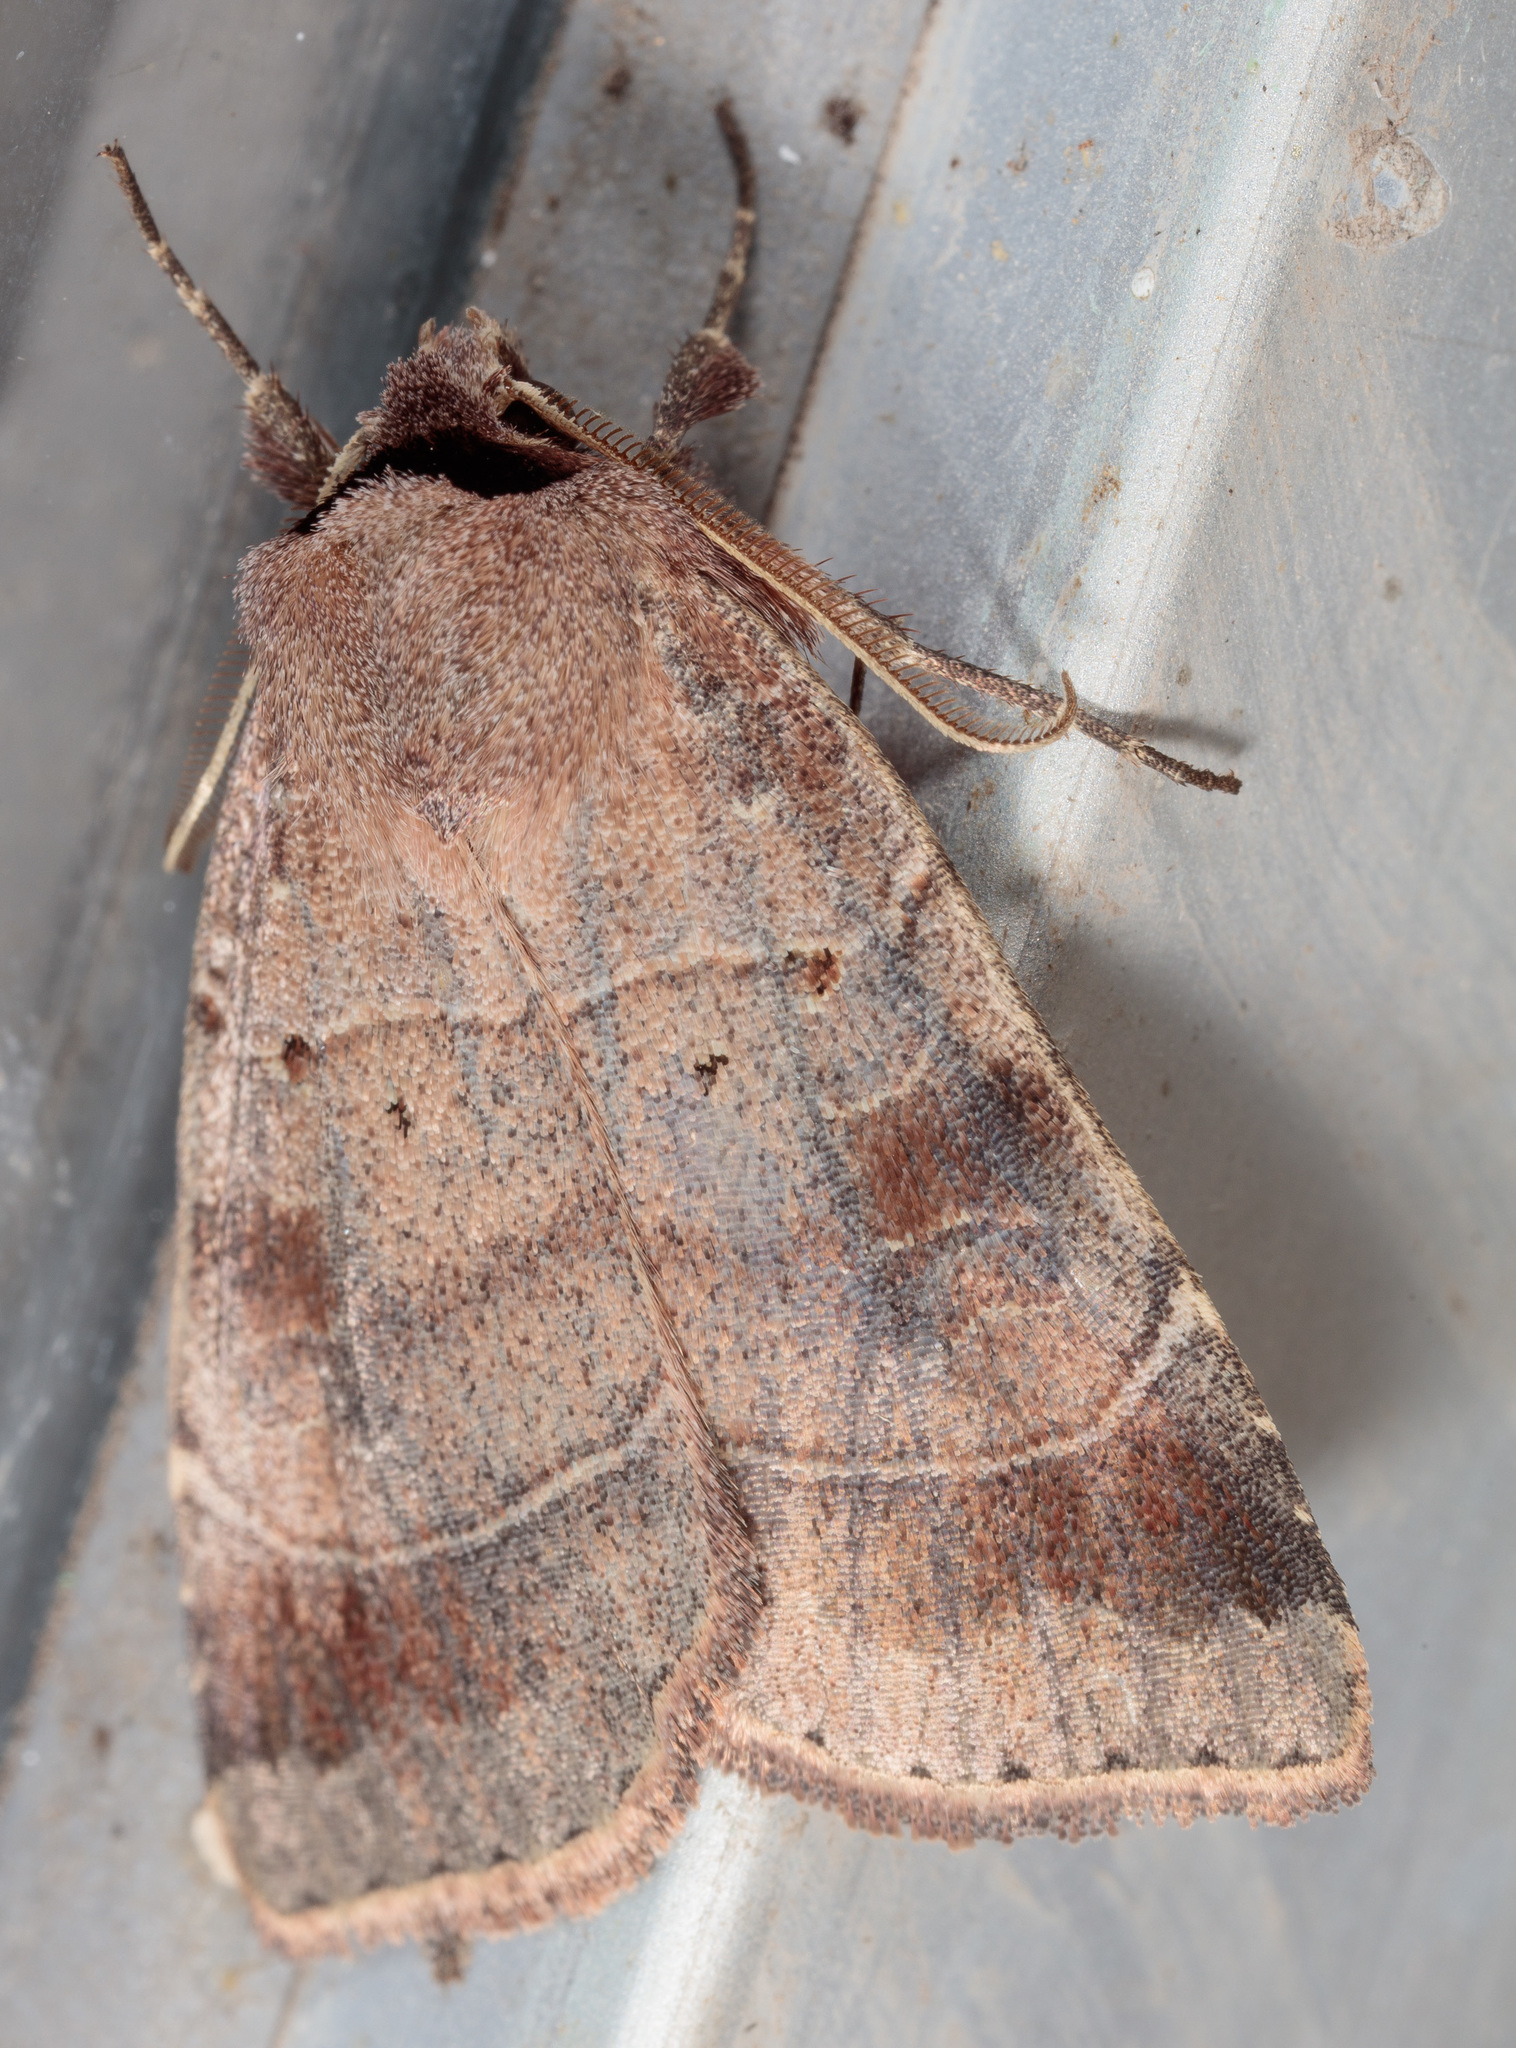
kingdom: Animalia
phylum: Arthropoda
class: Insecta
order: Lepidoptera
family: Noctuidae
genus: Agnorisma
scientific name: Agnorisma badinodis
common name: Pale-banded dart
